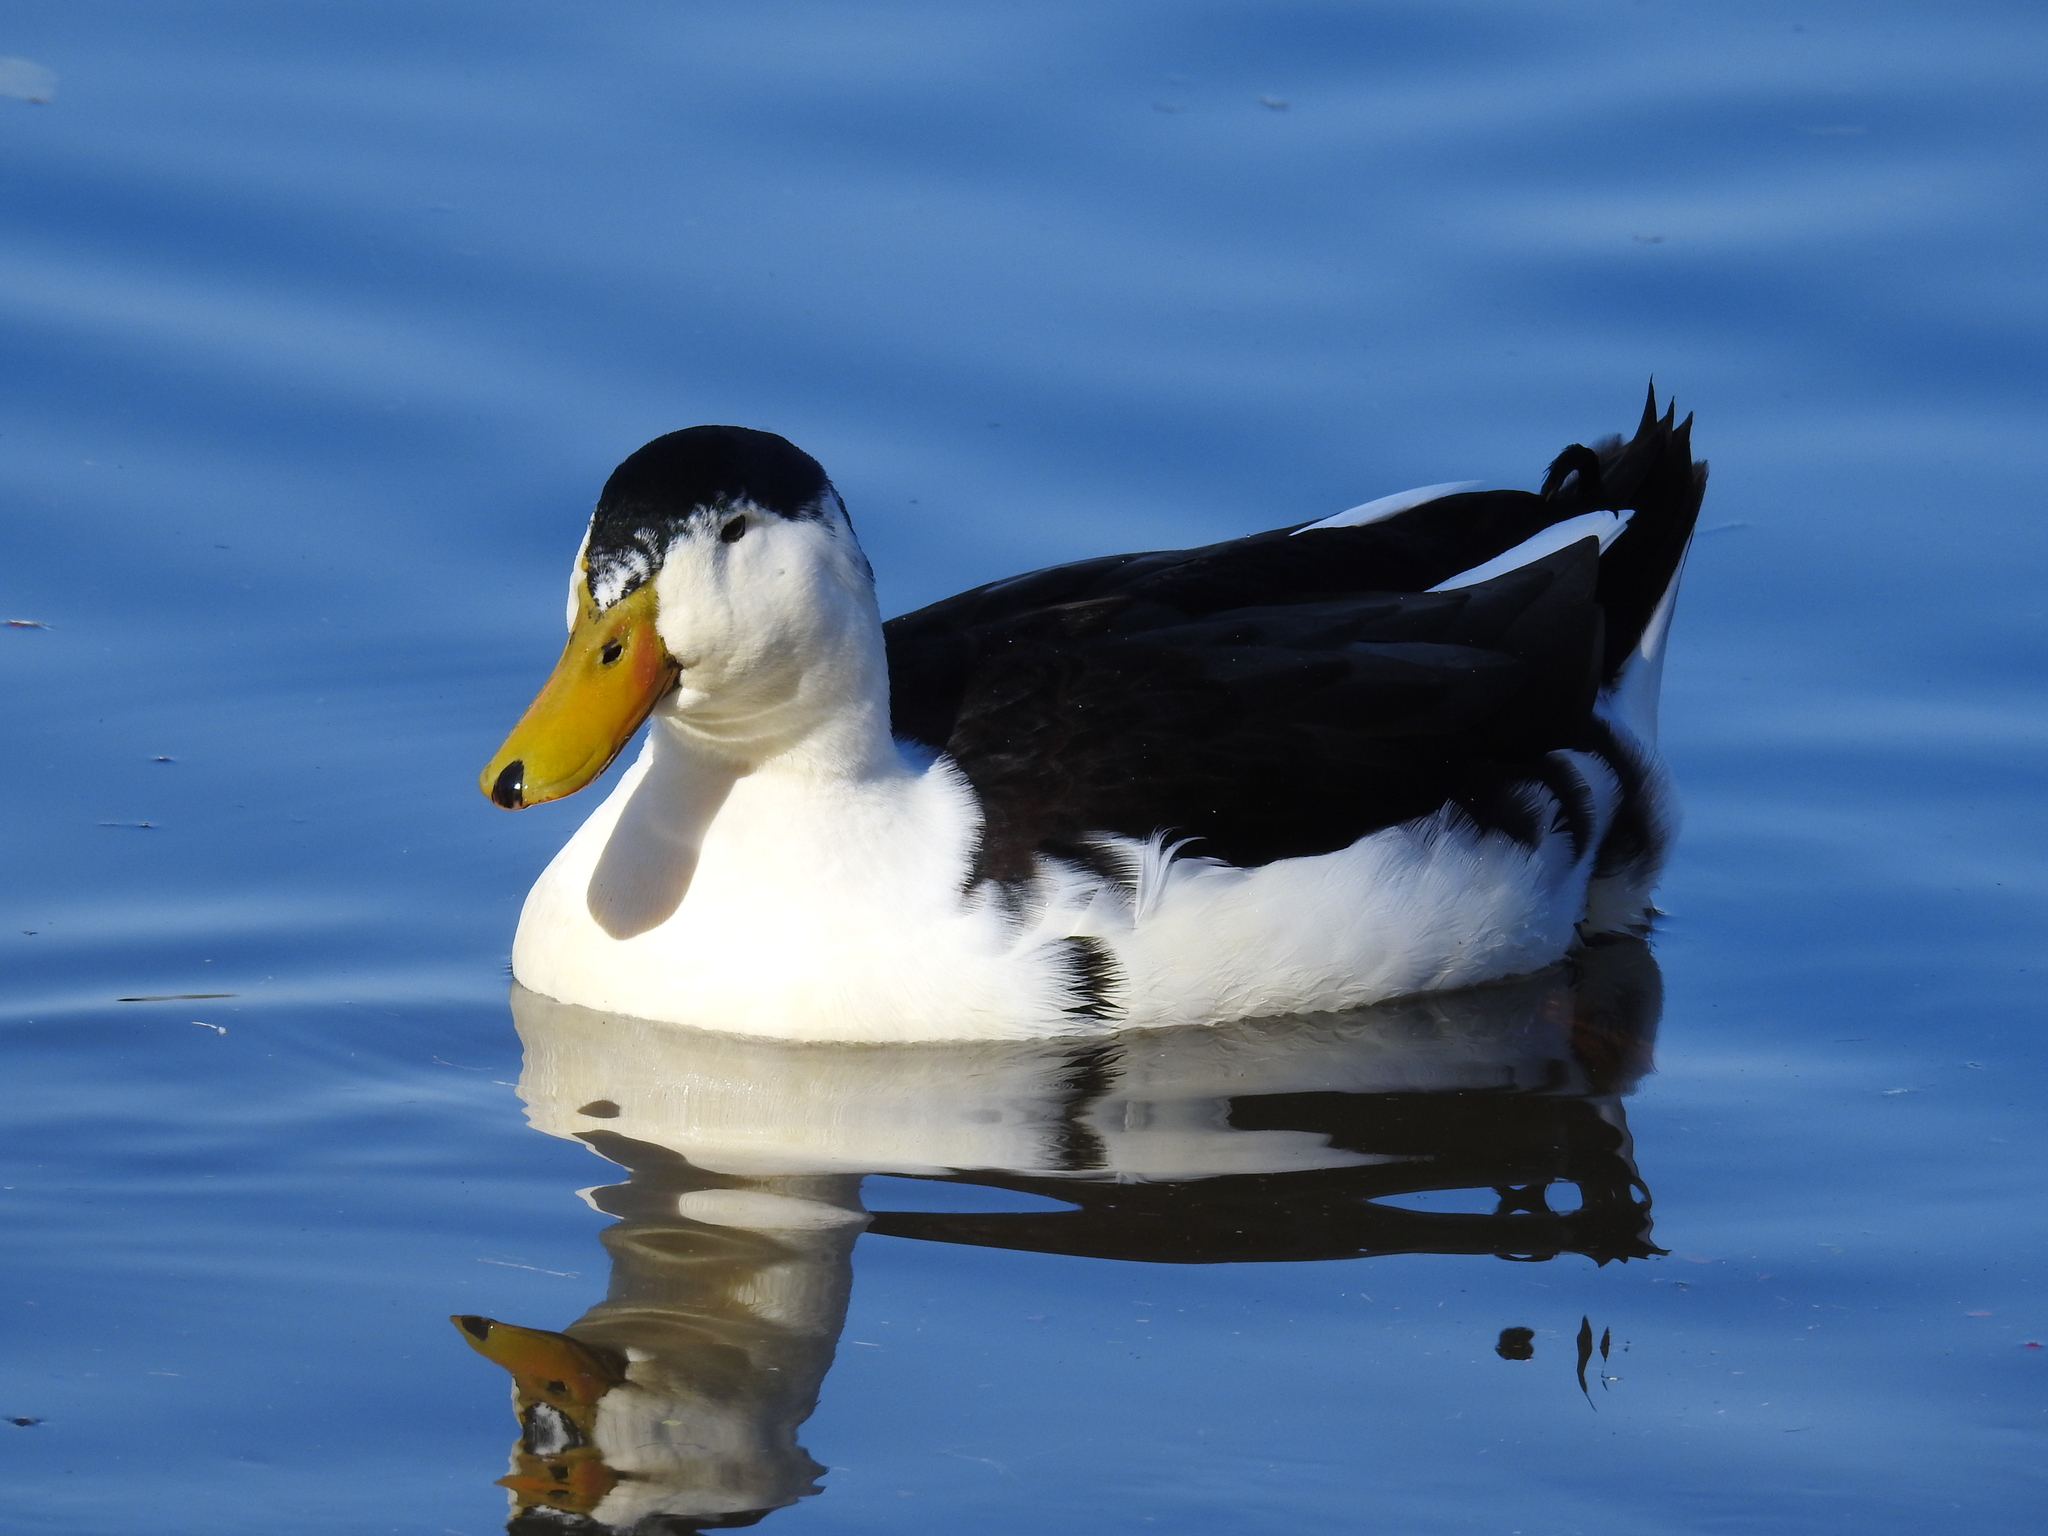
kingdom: Animalia
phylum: Chordata
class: Aves
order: Anseriformes
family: Anatidae
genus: Anas
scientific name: Anas platyrhynchos
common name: Mallard
